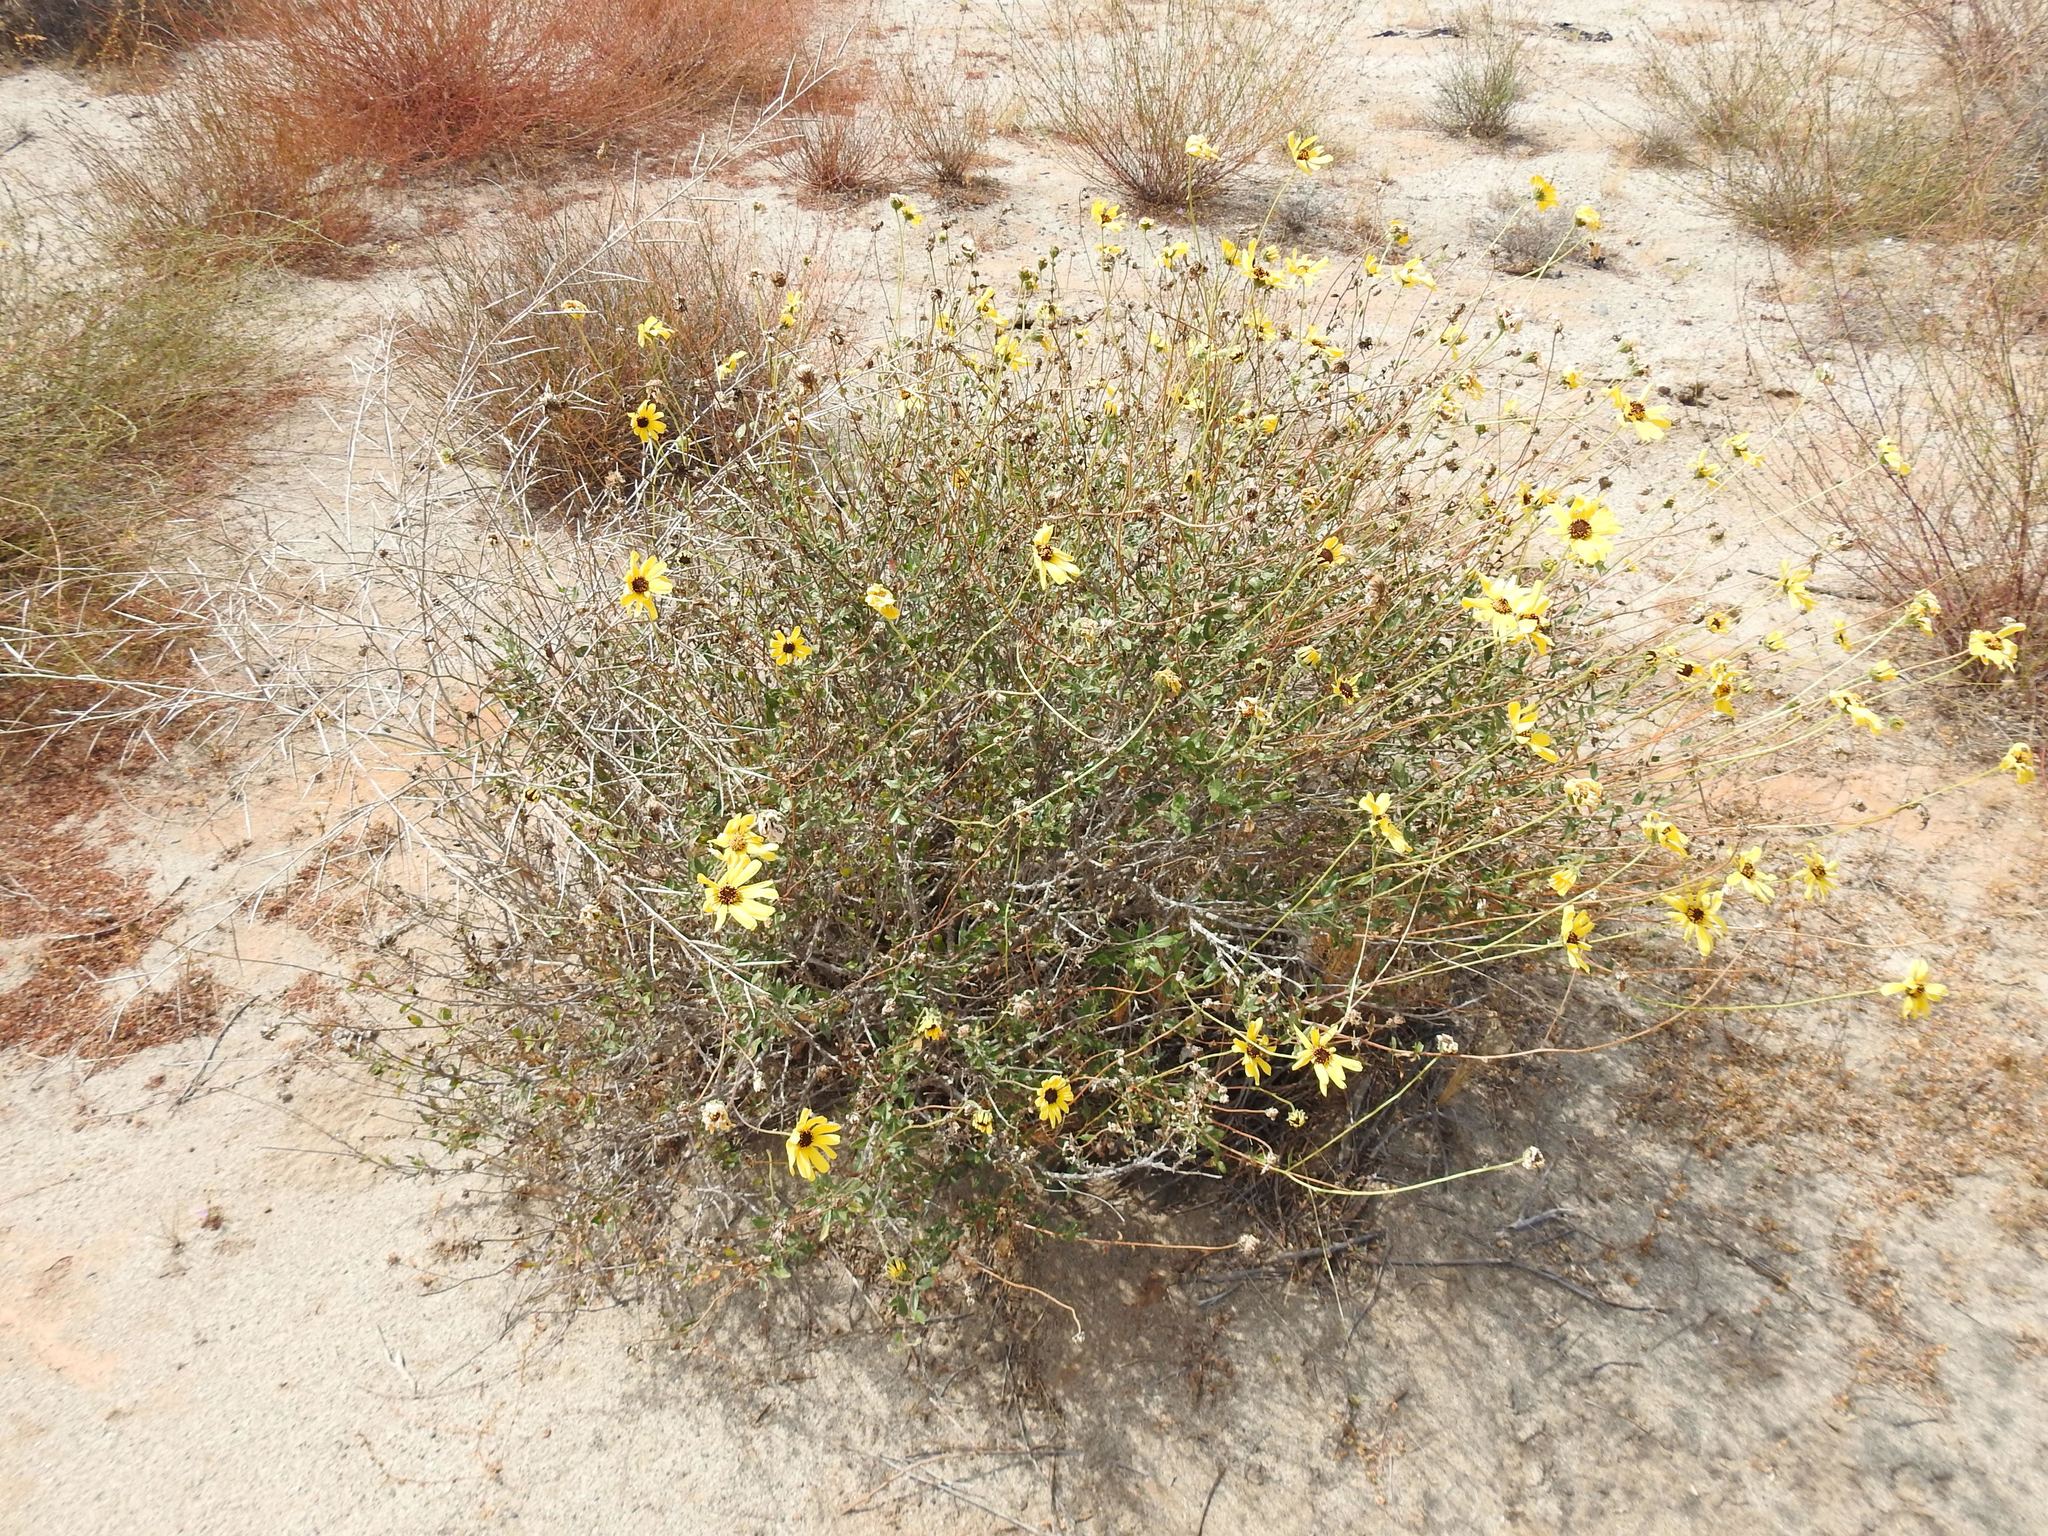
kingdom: Plantae
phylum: Tracheophyta
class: Magnoliopsida
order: Asterales
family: Asteraceae
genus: Encelia
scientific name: Encelia californica
